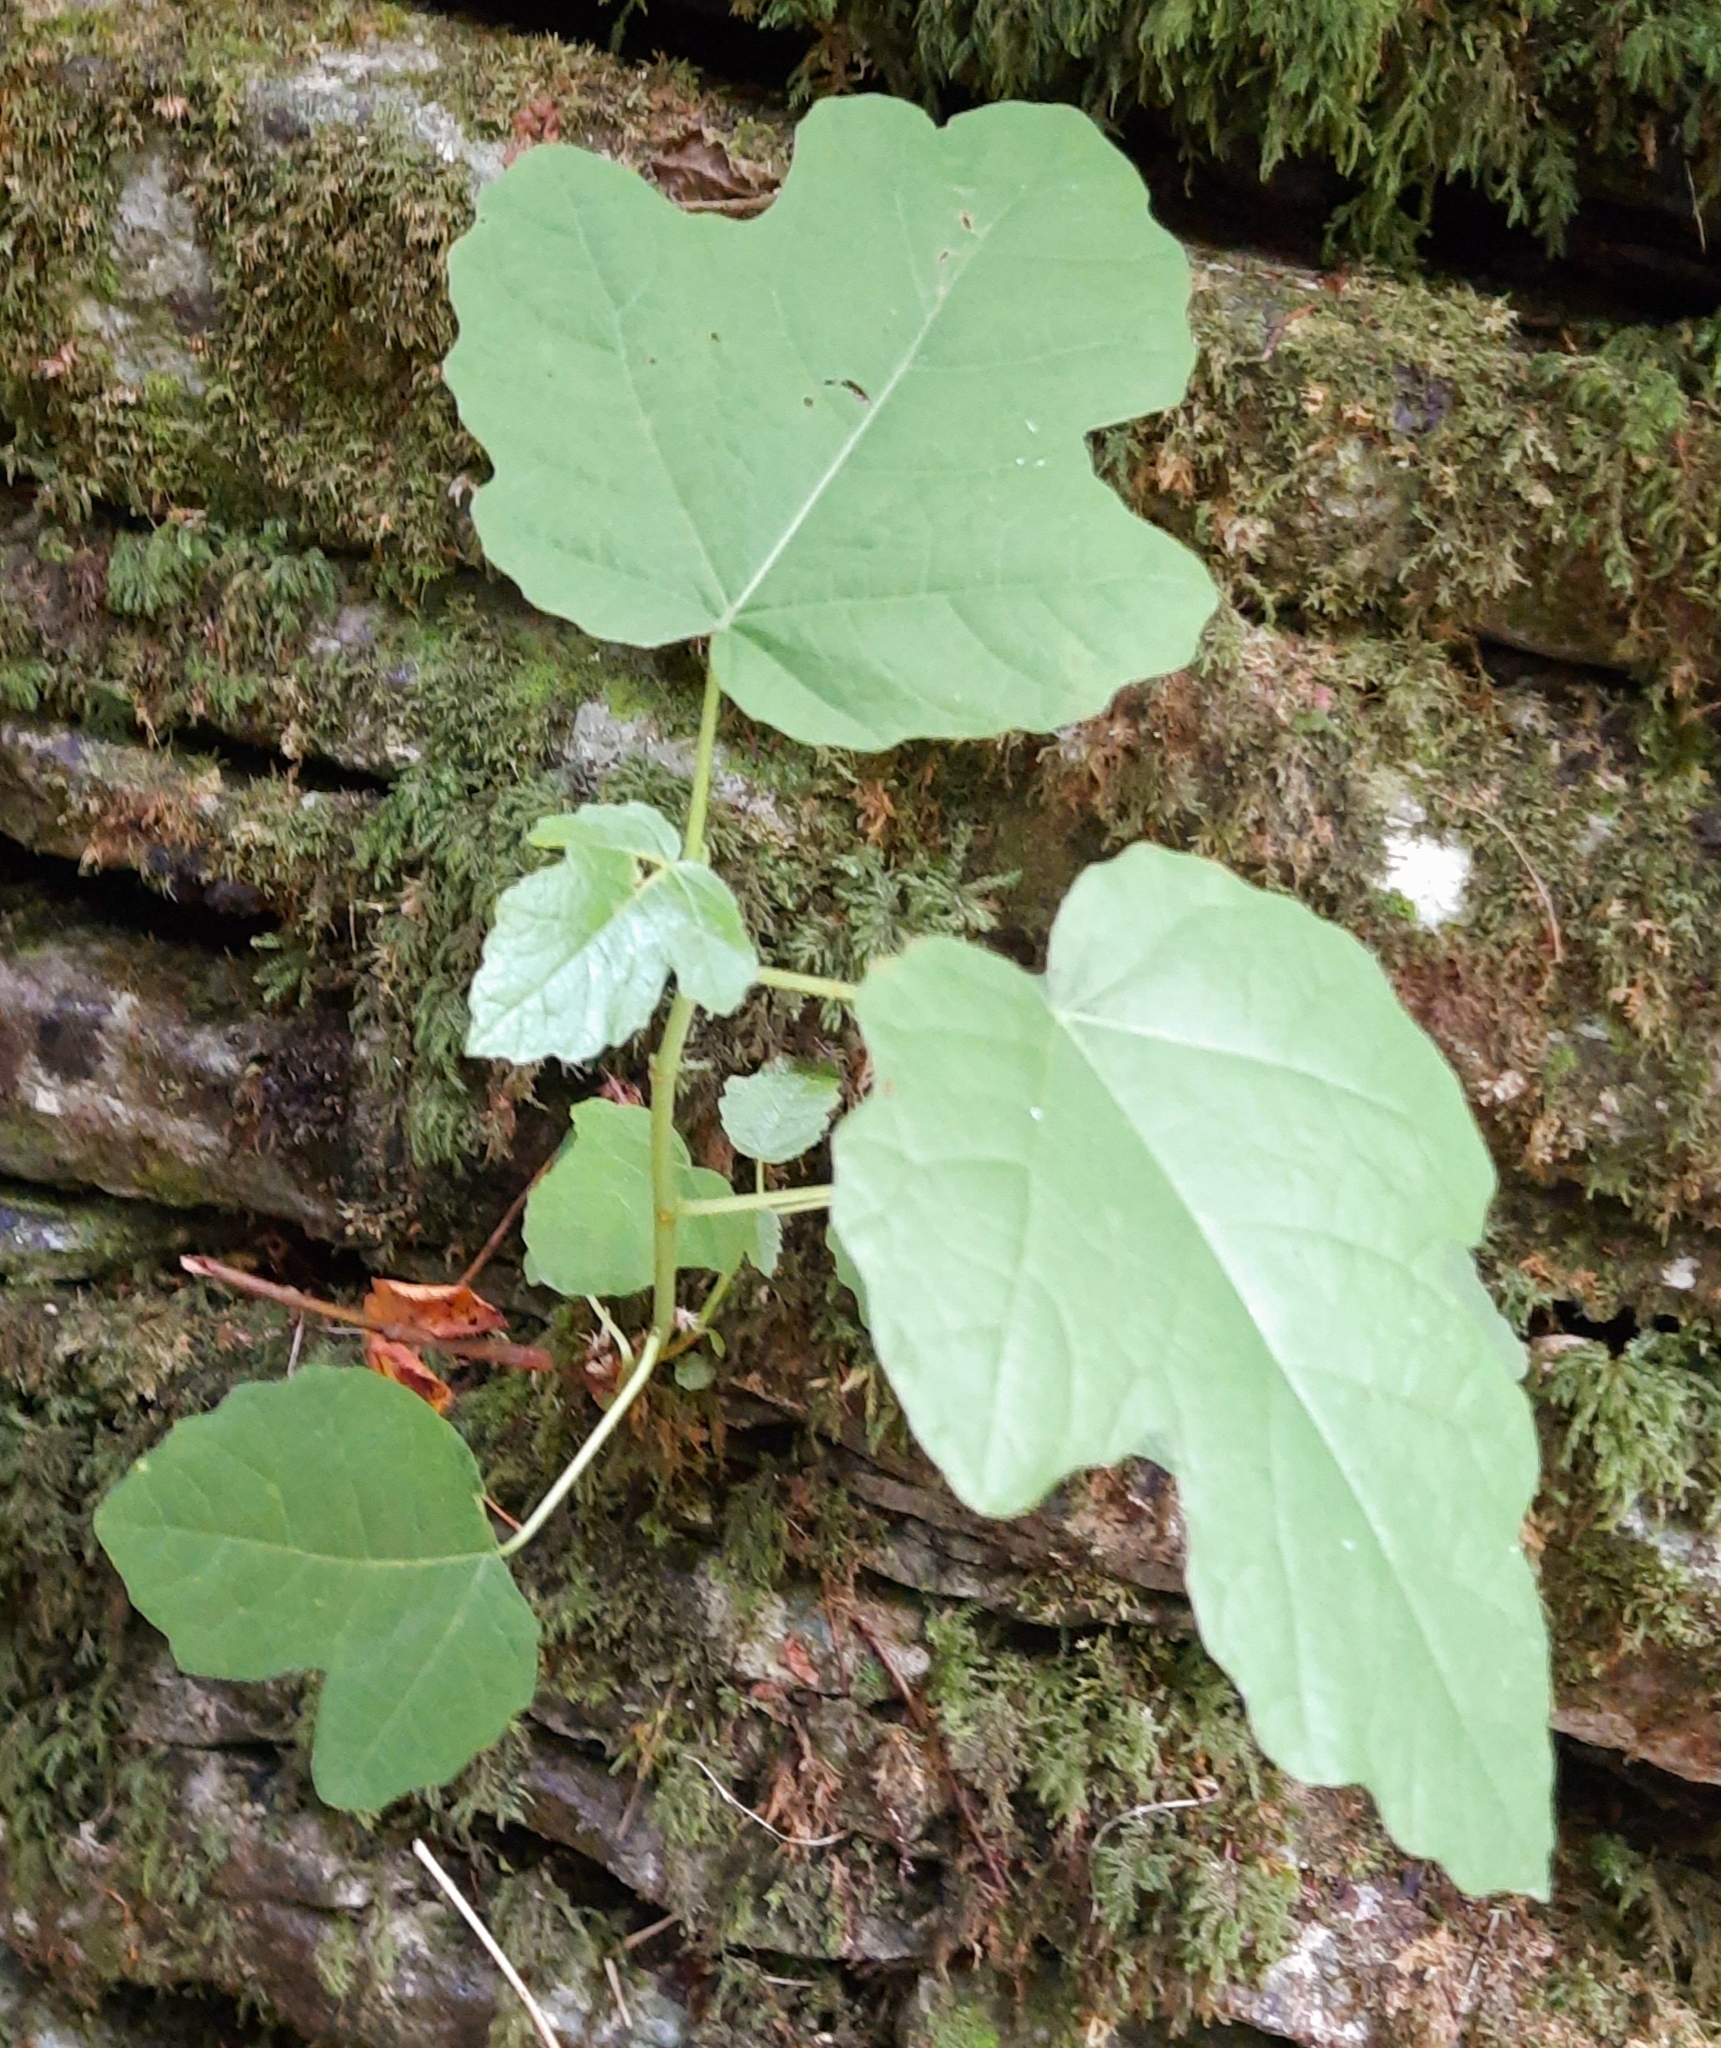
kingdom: Plantae
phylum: Tracheophyta
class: Magnoliopsida
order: Rosales
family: Moraceae
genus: Ficus
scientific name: Ficus carica
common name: Fig
